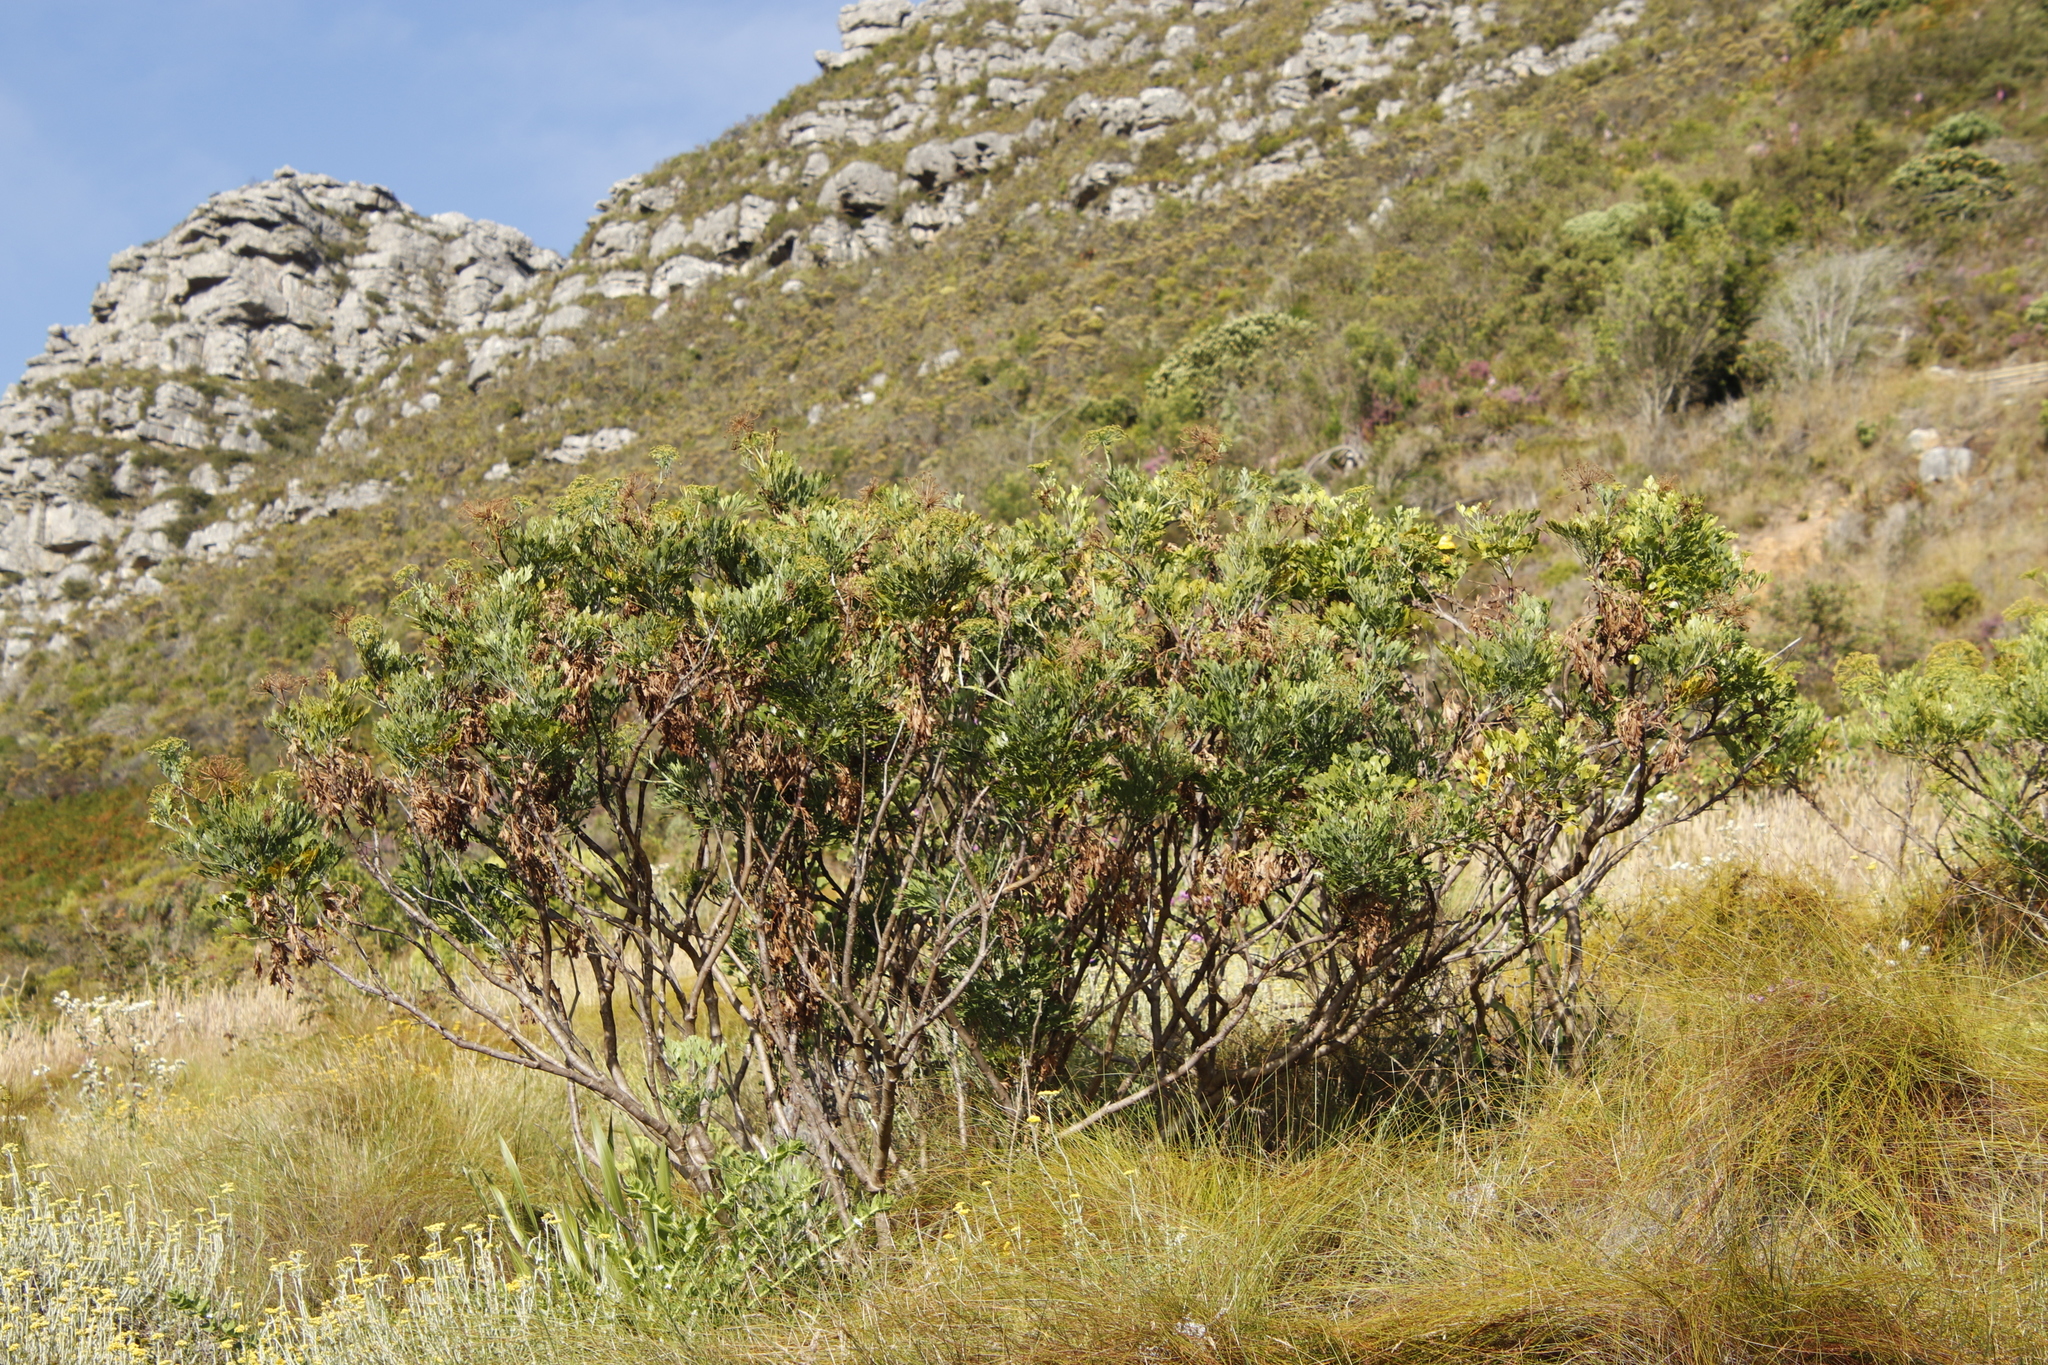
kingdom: Plantae
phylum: Tracheophyta
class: Magnoliopsida
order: Asterales
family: Asteraceae
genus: Osteospermum
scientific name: Osteospermum moniliferum
